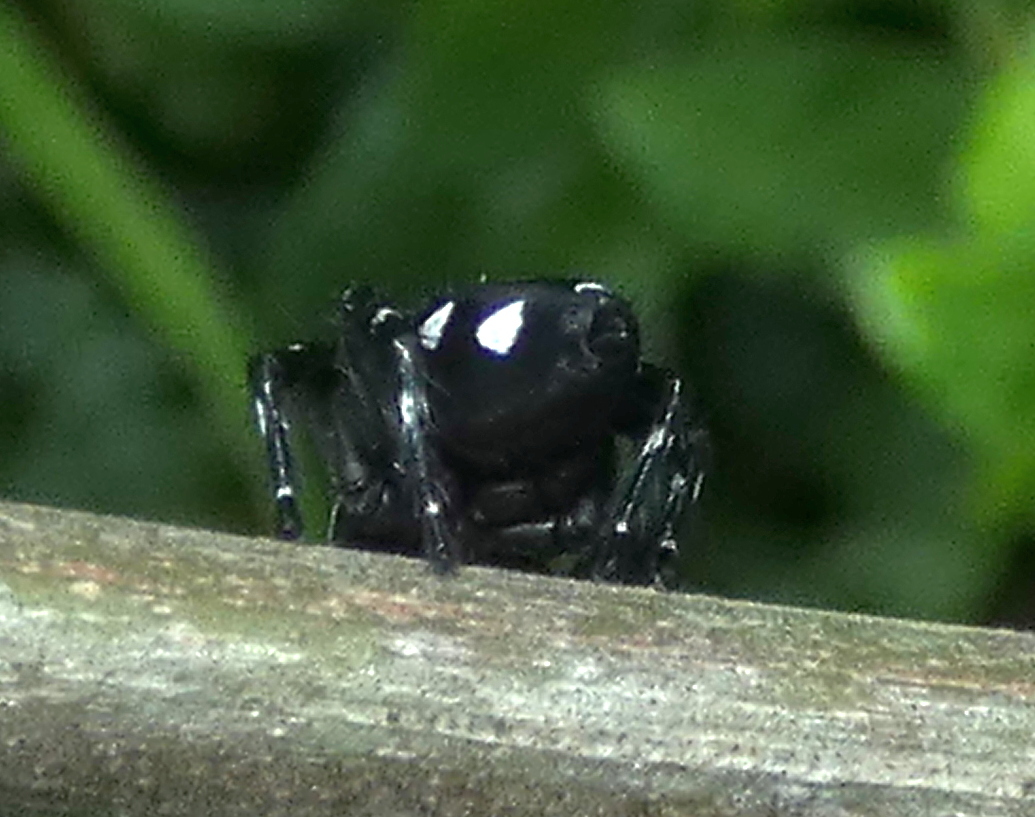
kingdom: Animalia
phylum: Arthropoda
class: Arachnida
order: Araneae
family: Salticidae
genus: Phiale
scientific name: Phiale guttata
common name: Jumping spiders
